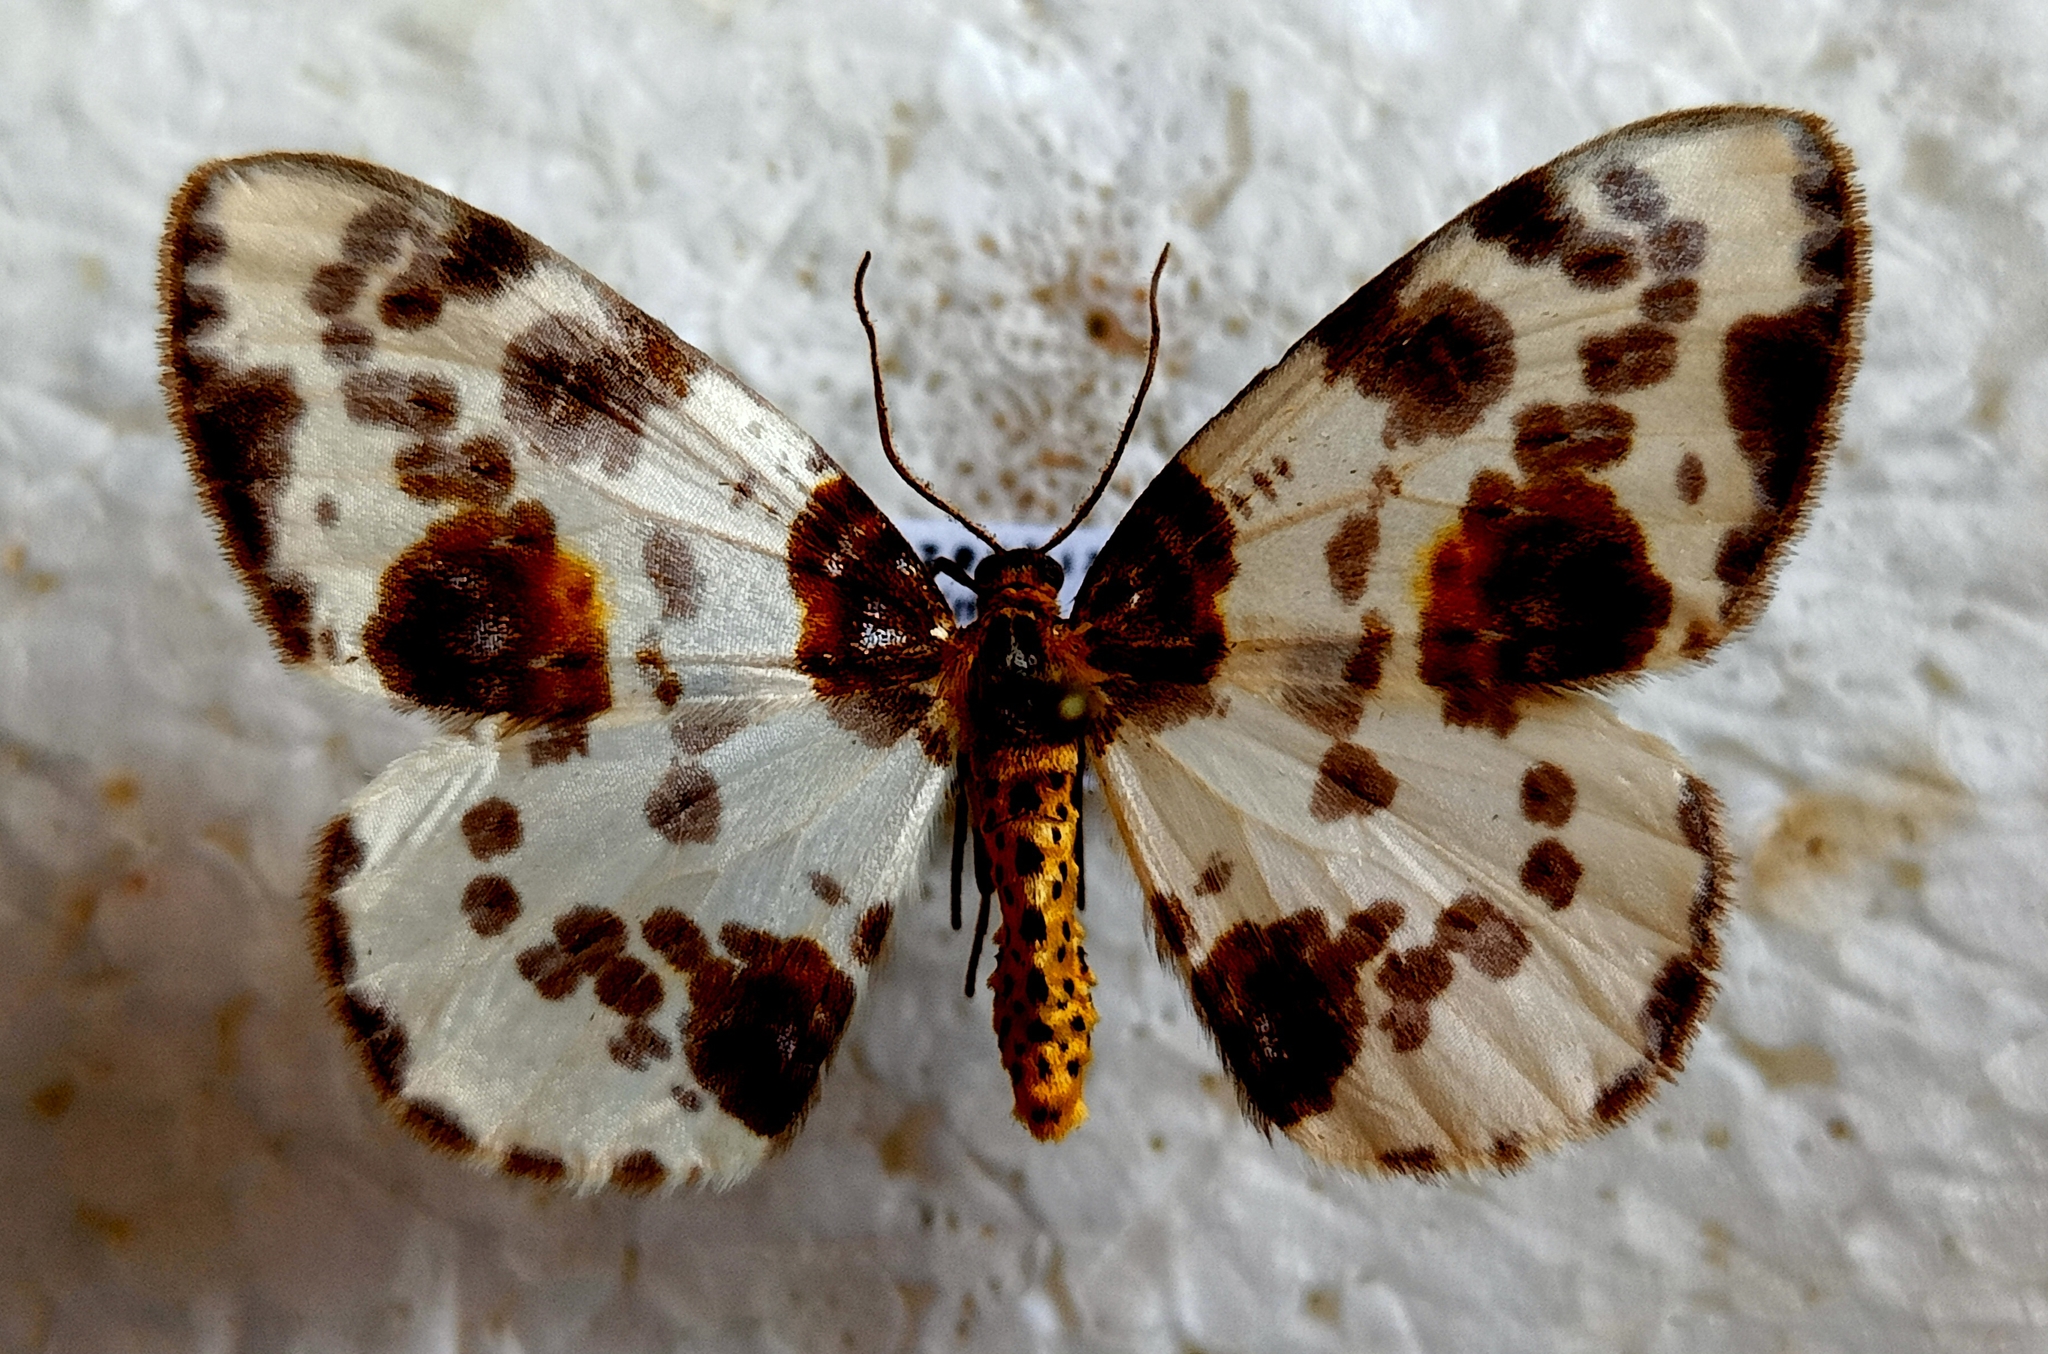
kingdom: Animalia
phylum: Arthropoda
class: Insecta
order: Lepidoptera
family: Geometridae
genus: Abraxas
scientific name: Abraxas sylvata
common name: Clouded magpie
